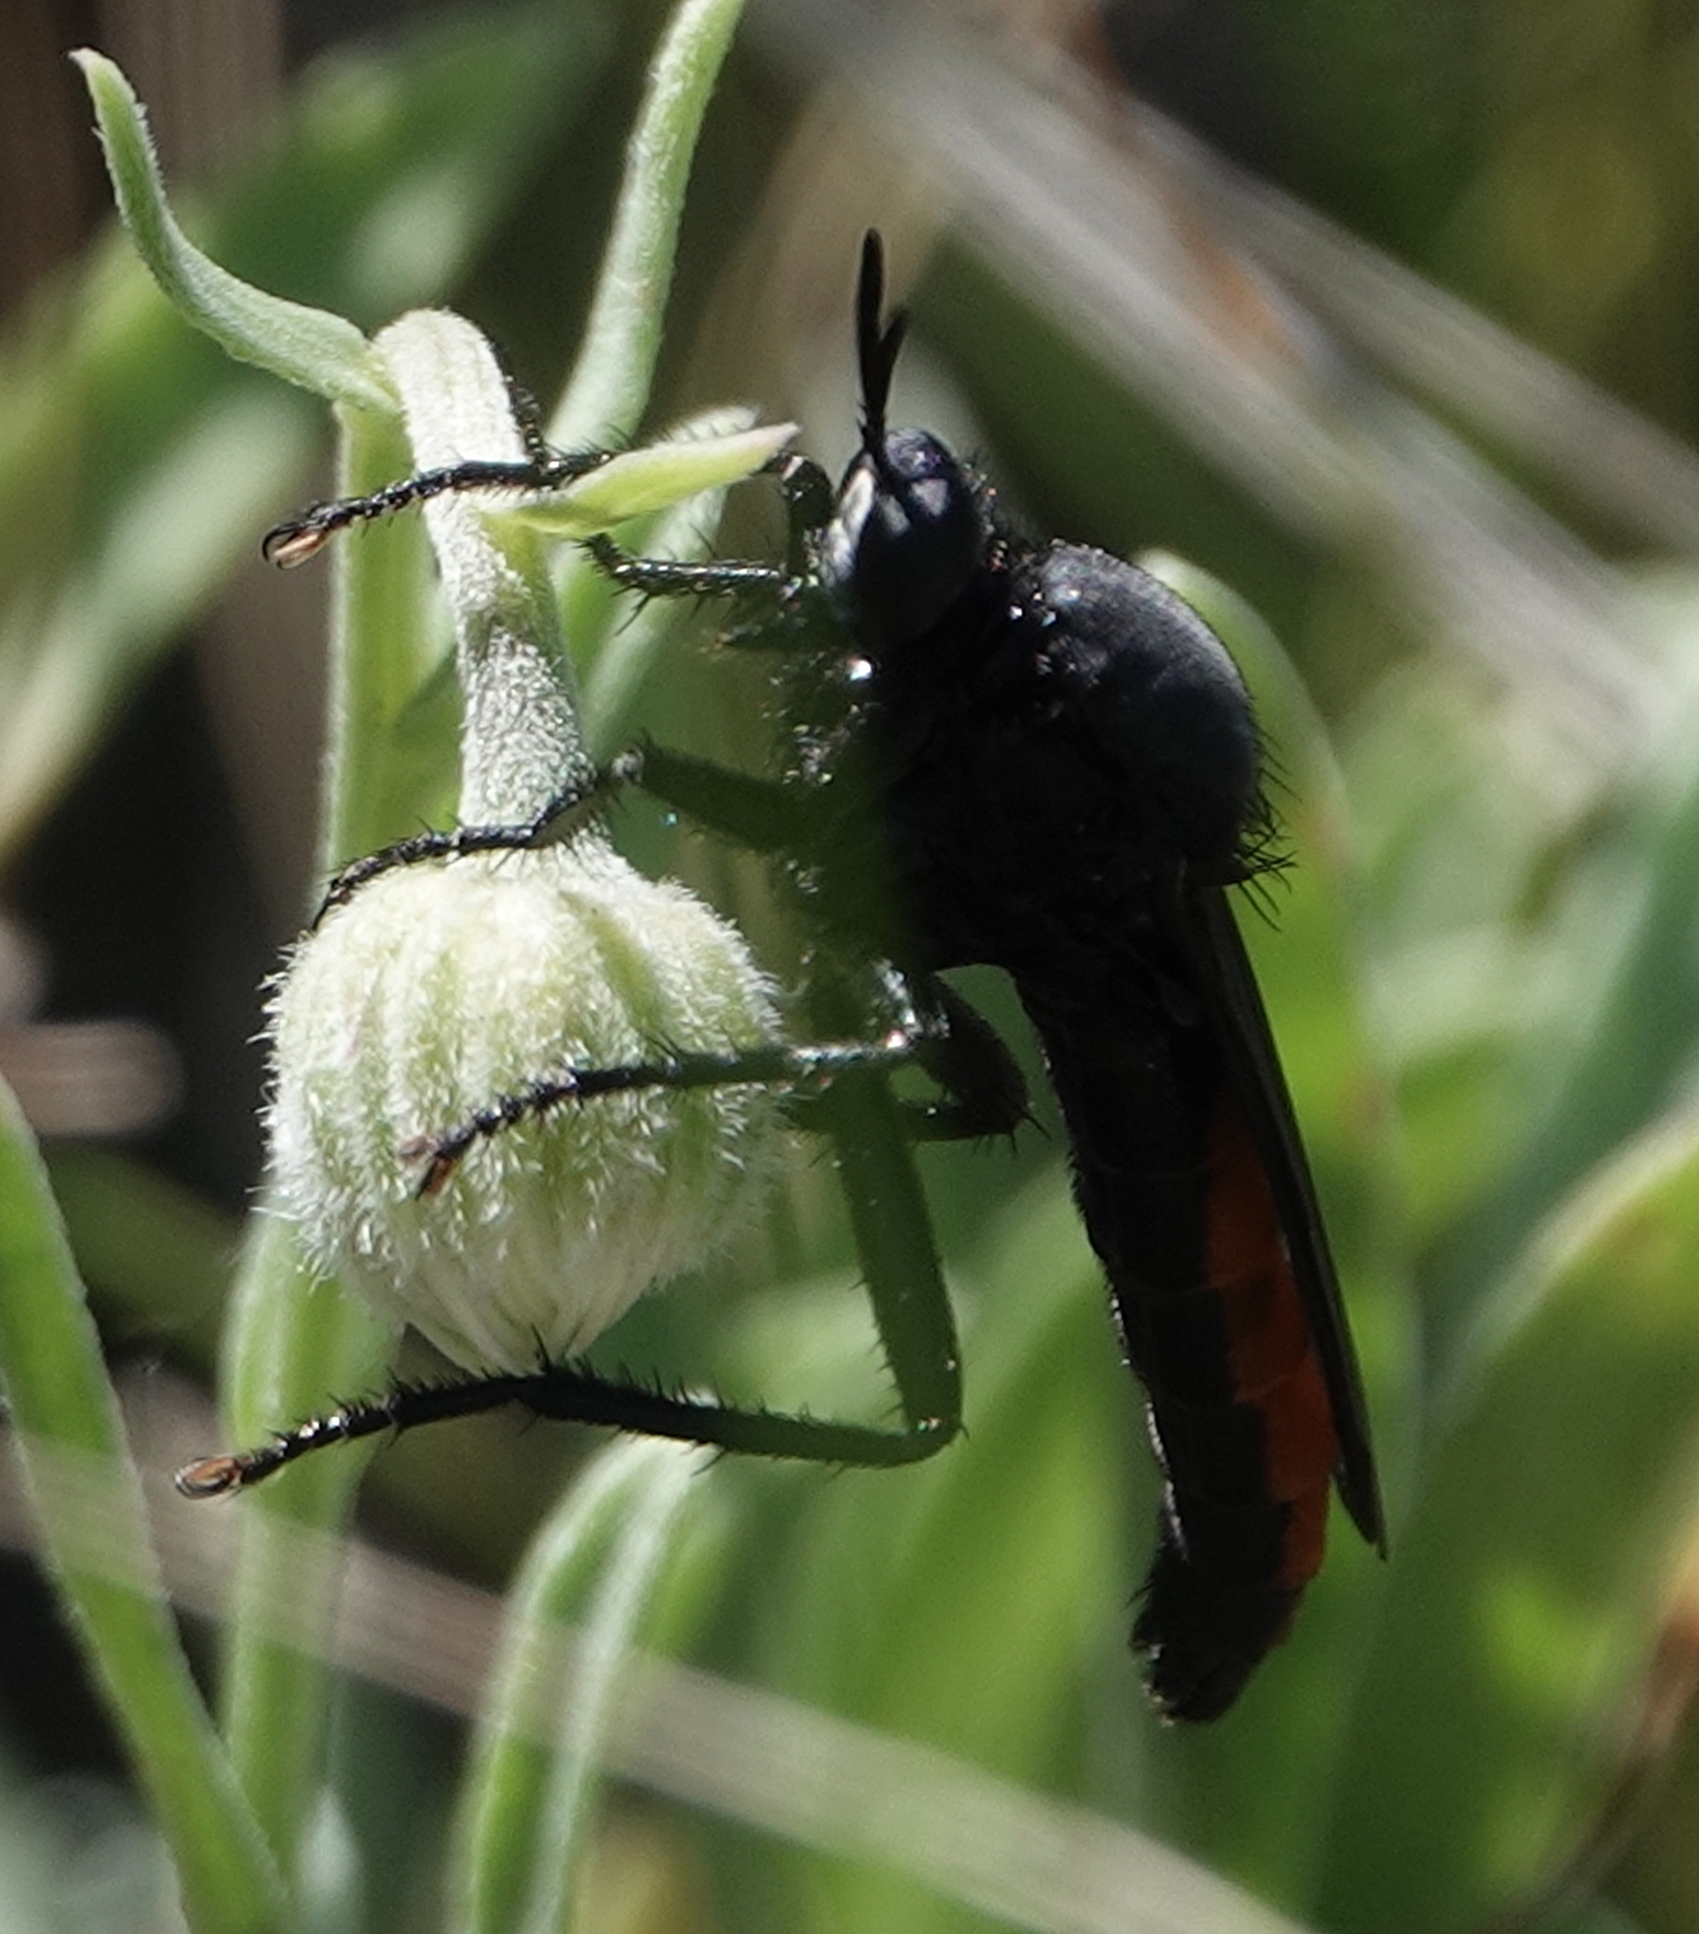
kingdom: Animalia
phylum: Arthropoda
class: Insecta
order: Diptera
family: Asilidae
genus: Stenopogon
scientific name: Stenopogon aeacus
